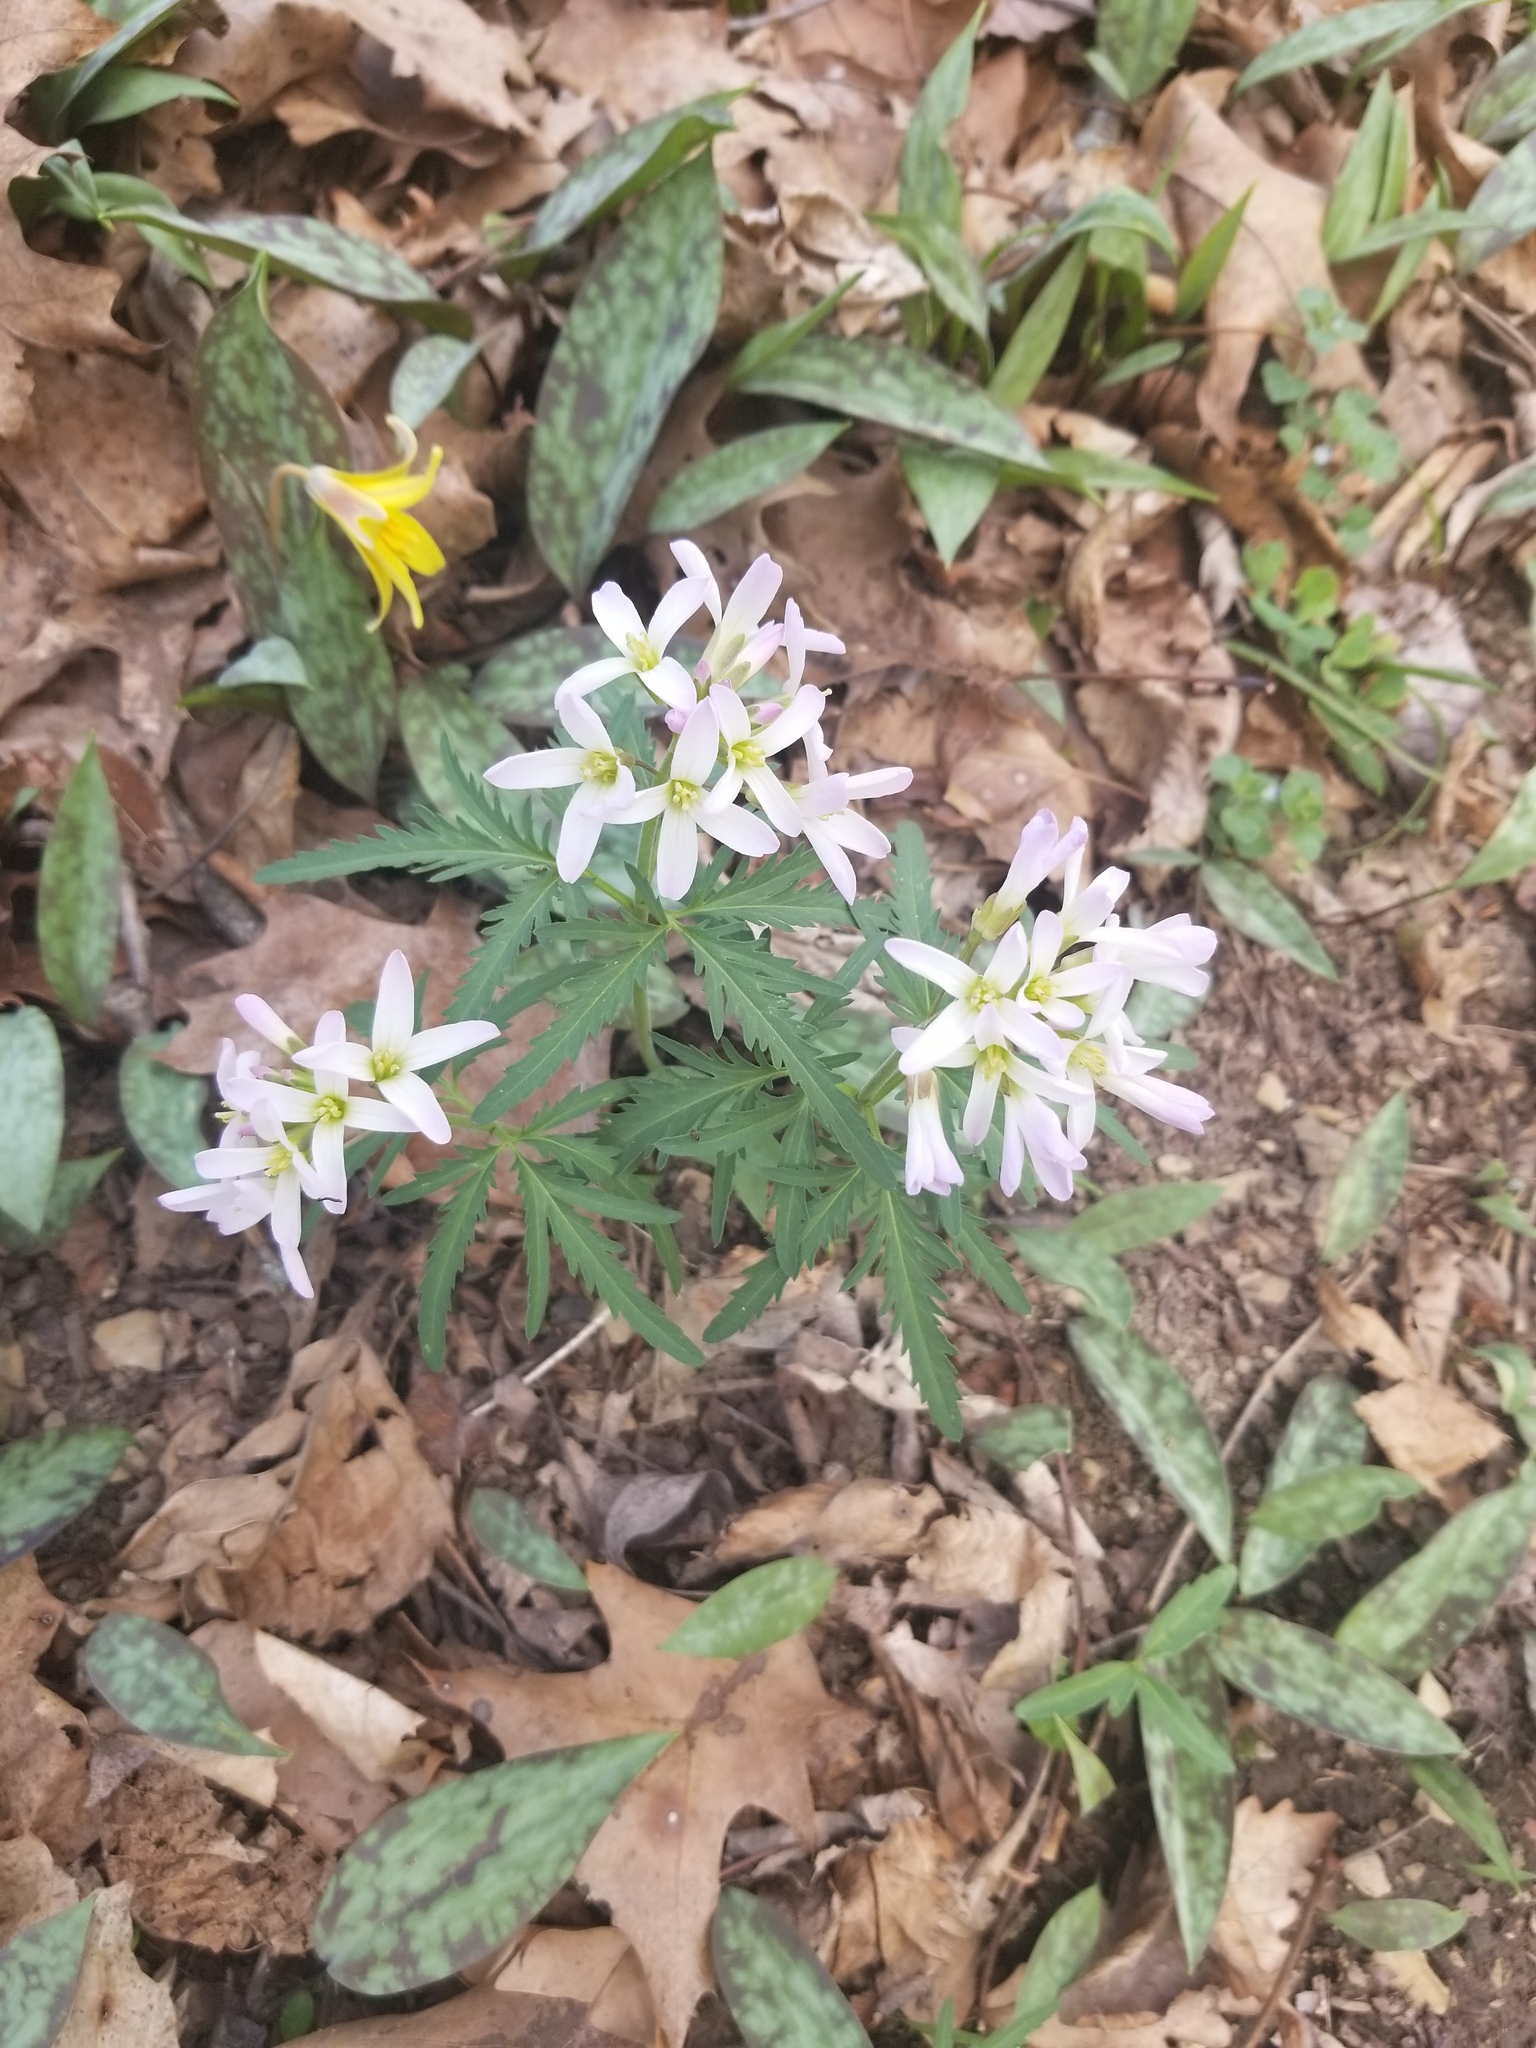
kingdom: Plantae
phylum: Tracheophyta
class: Magnoliopsida
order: Brassicales
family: Brassicaceae
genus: Cardamine
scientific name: Cardamine concatenata
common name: Cut-leaf toothcup
